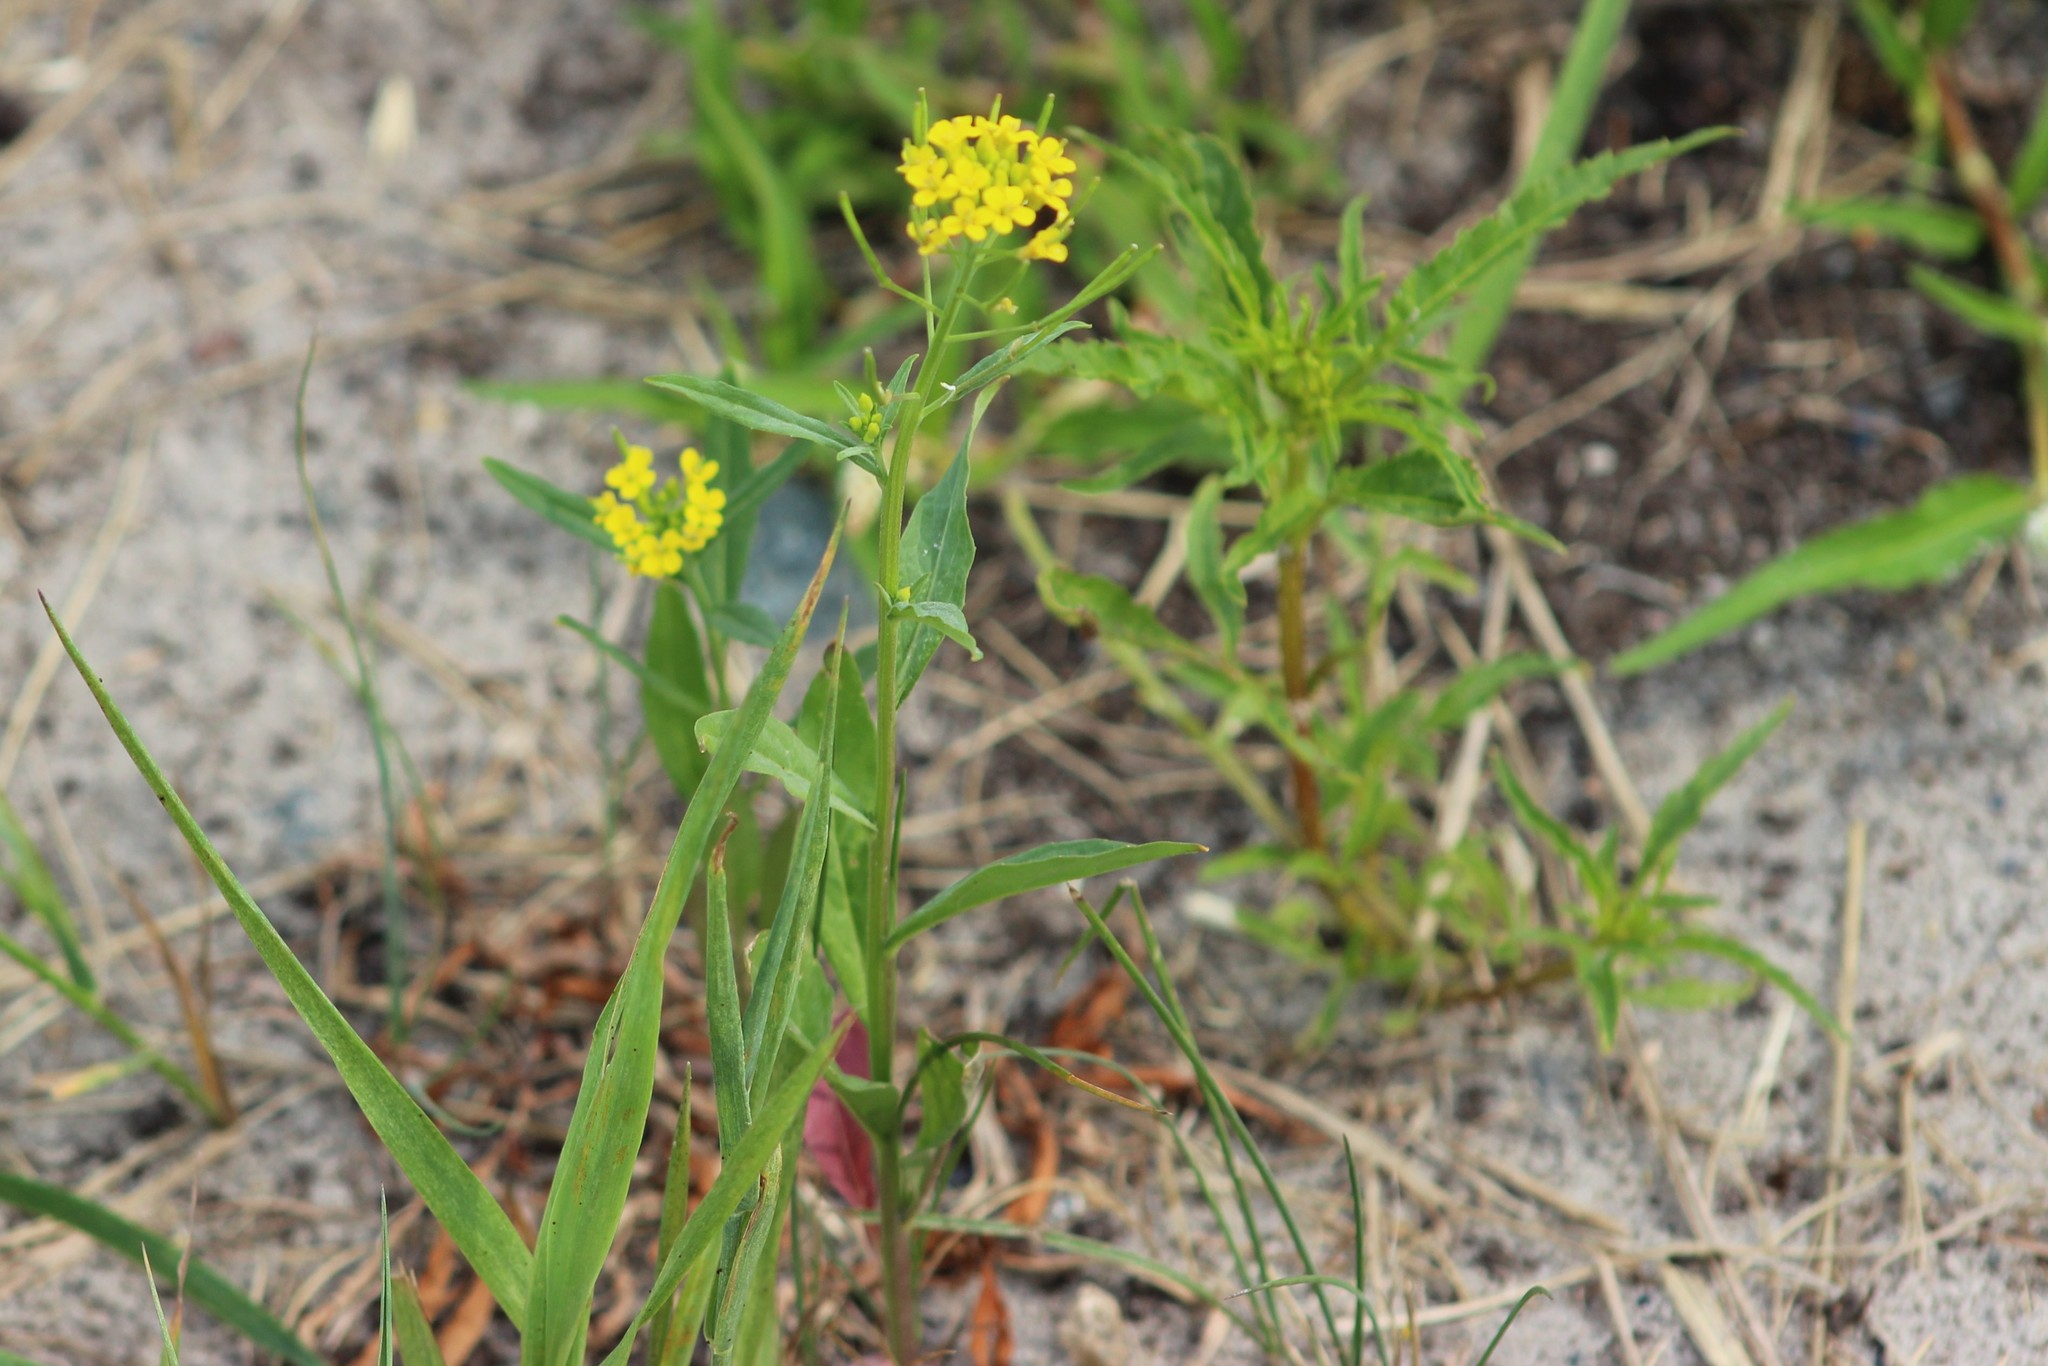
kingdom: Plantae
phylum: Tracheophyta
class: Magnoliopsida
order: Brassicales
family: Brassicaceae
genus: Erysimum
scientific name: Erysimum cheiranthoides
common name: Treacle mustard
